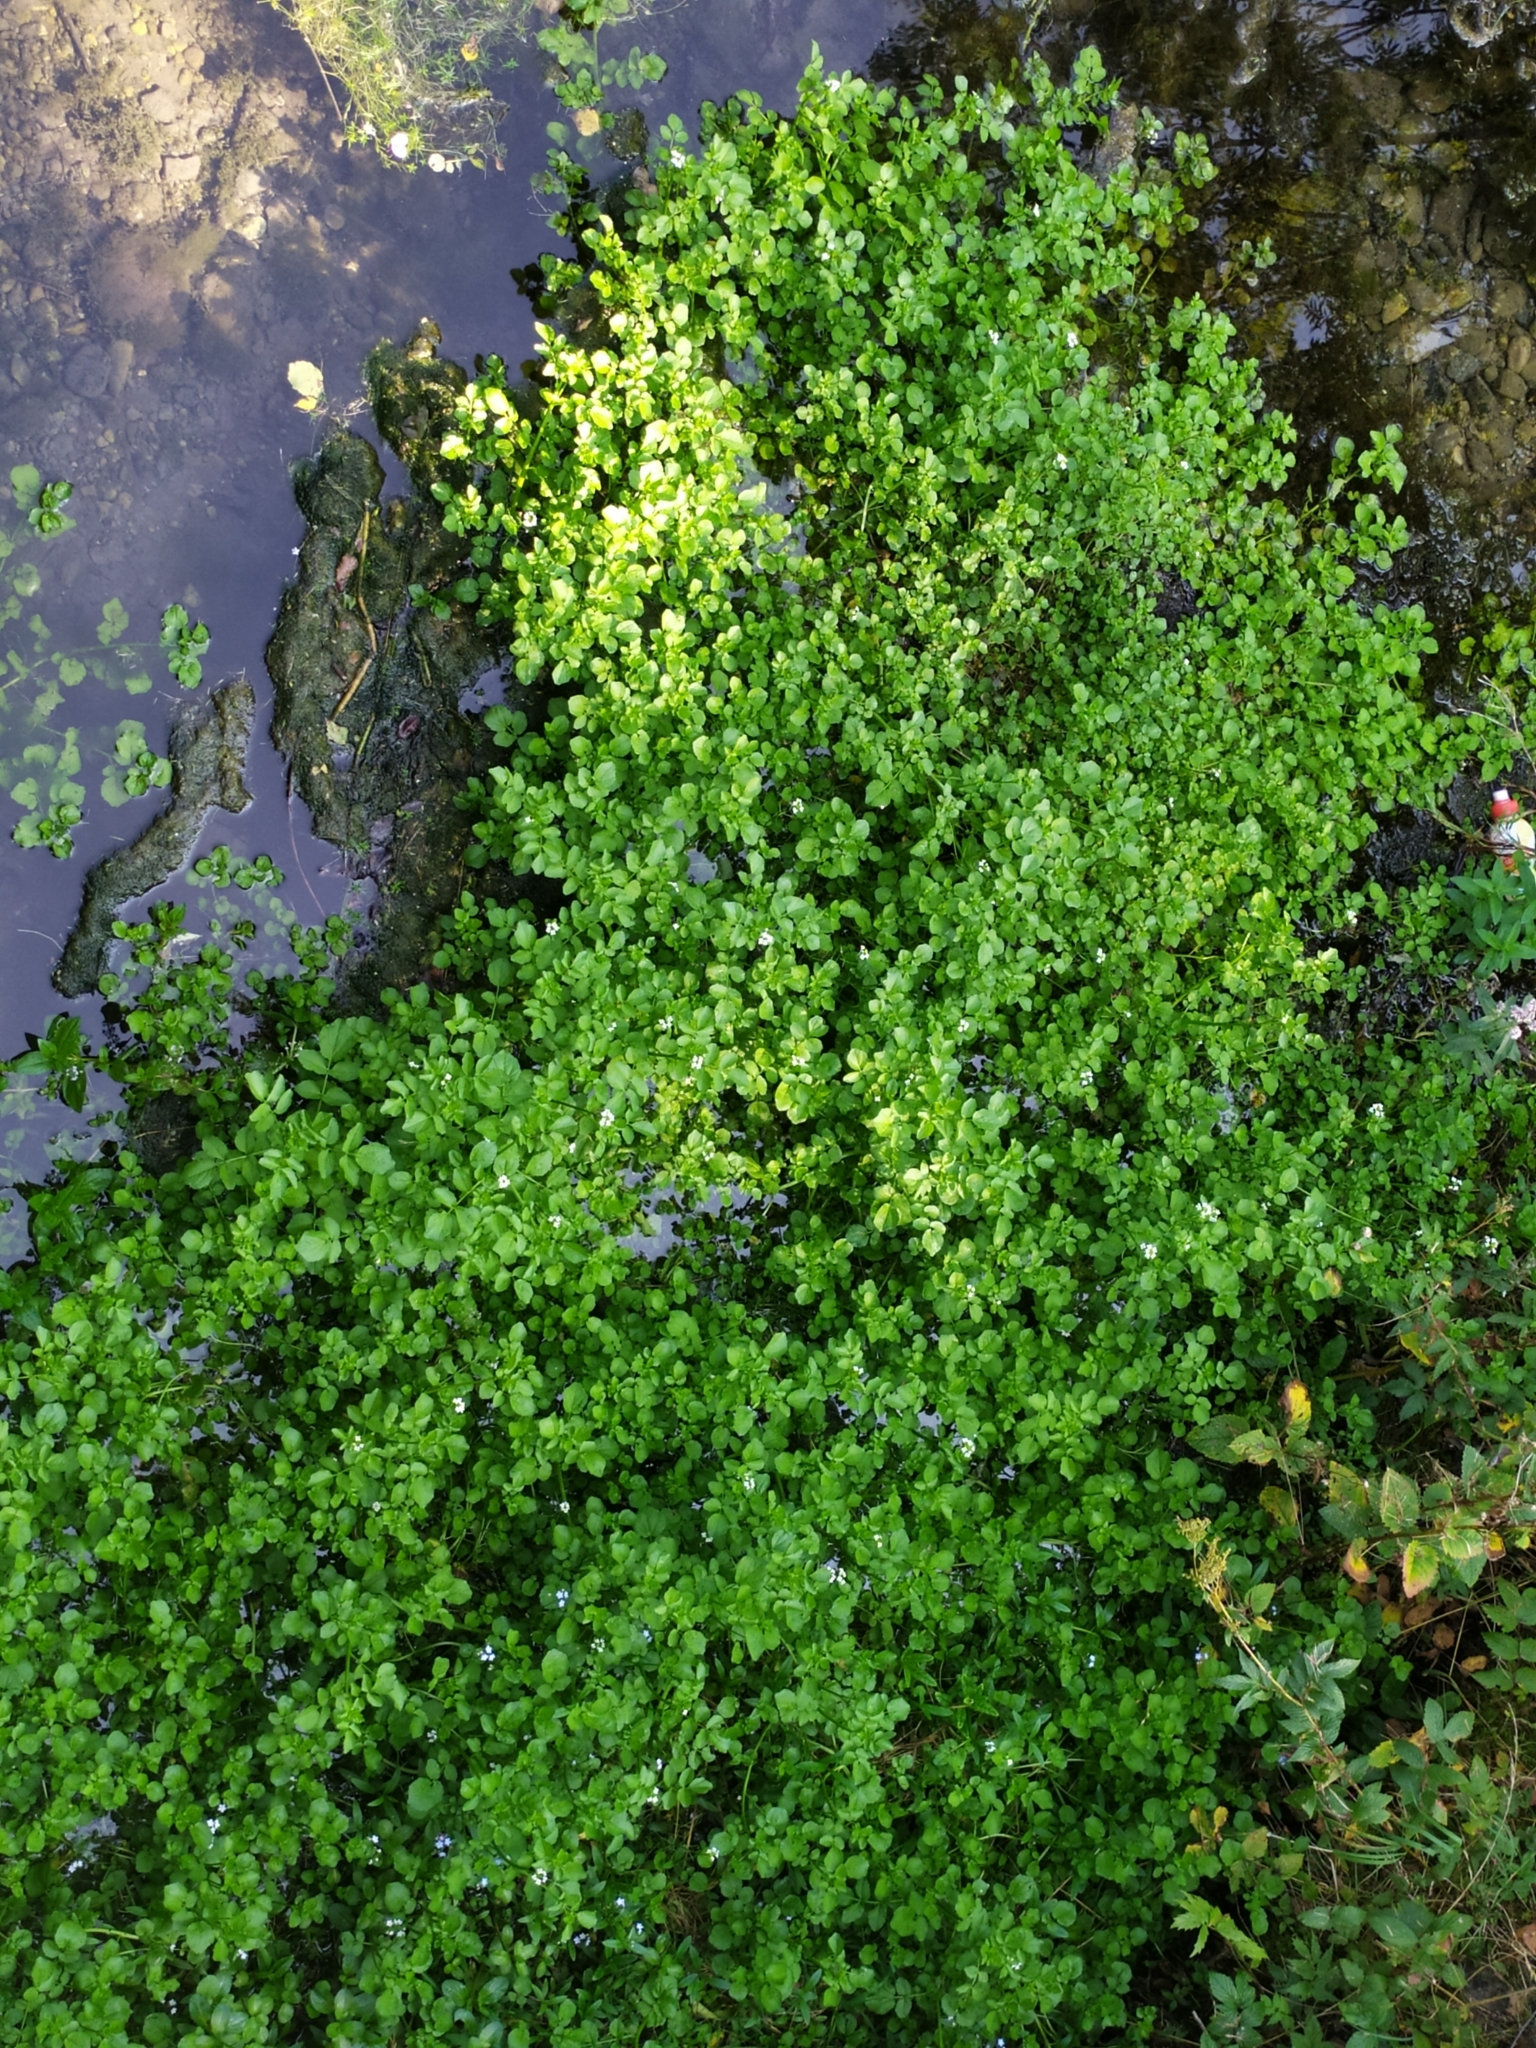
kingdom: Plantae
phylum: Tracheophyta
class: Magnoliopsida
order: Brassicales
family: Brassicaceae
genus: Nasturtium
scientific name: Nasturtium officinale
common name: Watercress
